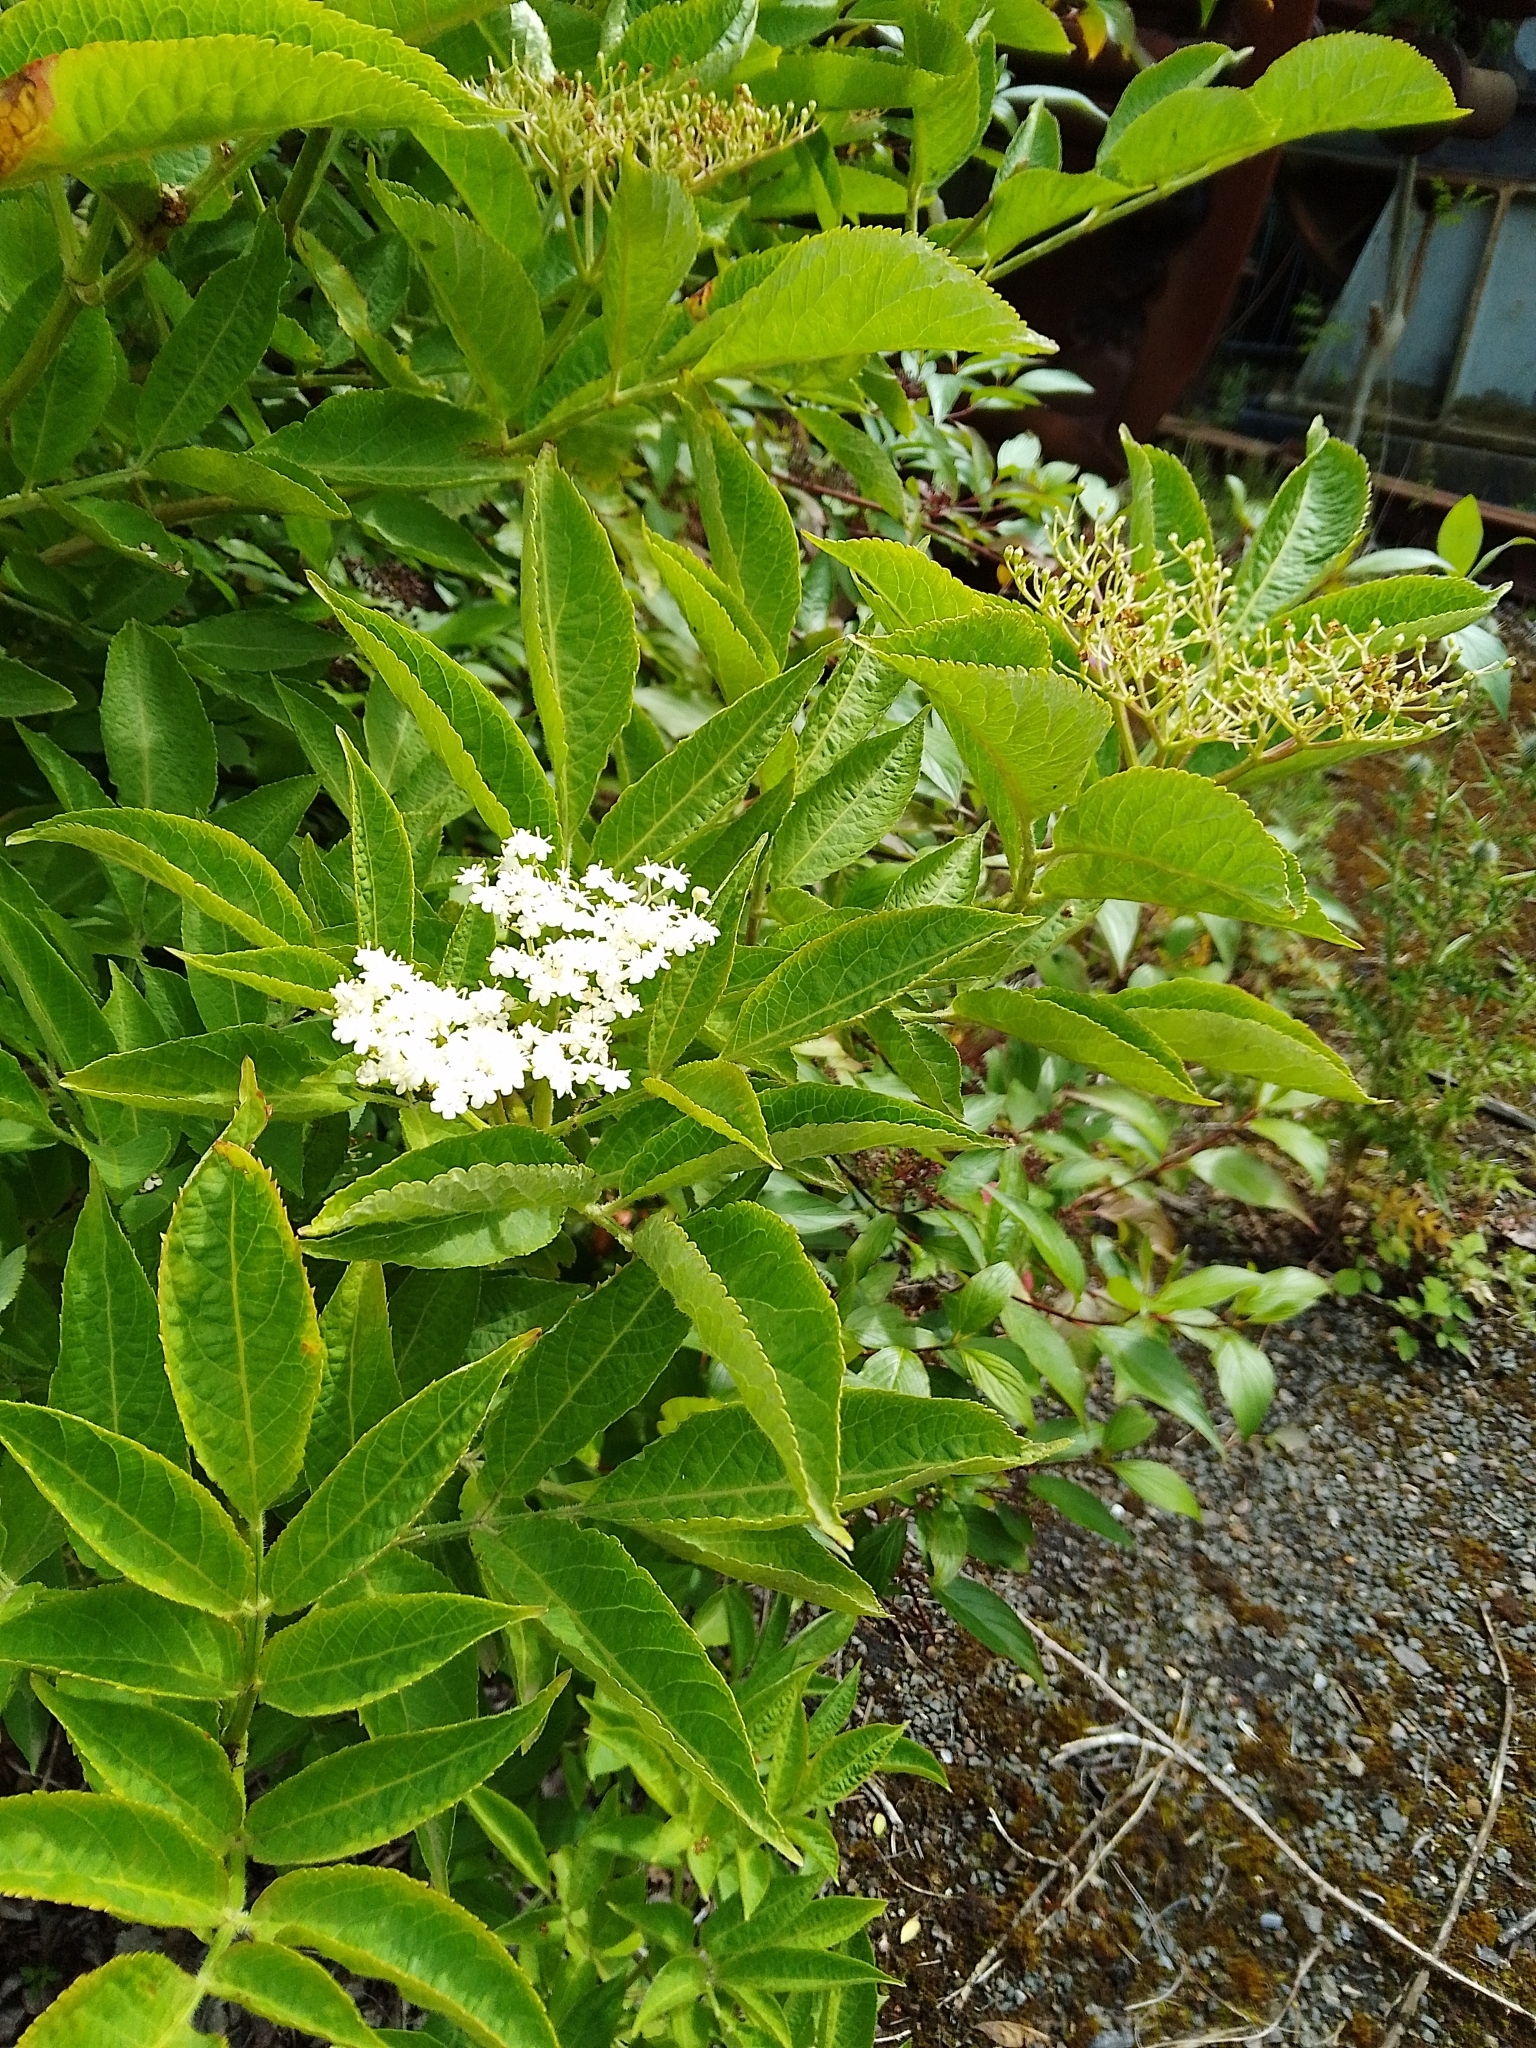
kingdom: Plantae
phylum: Tracheophyta
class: Magnoliopsida
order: Dipsacales
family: Viburnaceae
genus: Sambucus
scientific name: Sambucus nigra
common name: Elder
